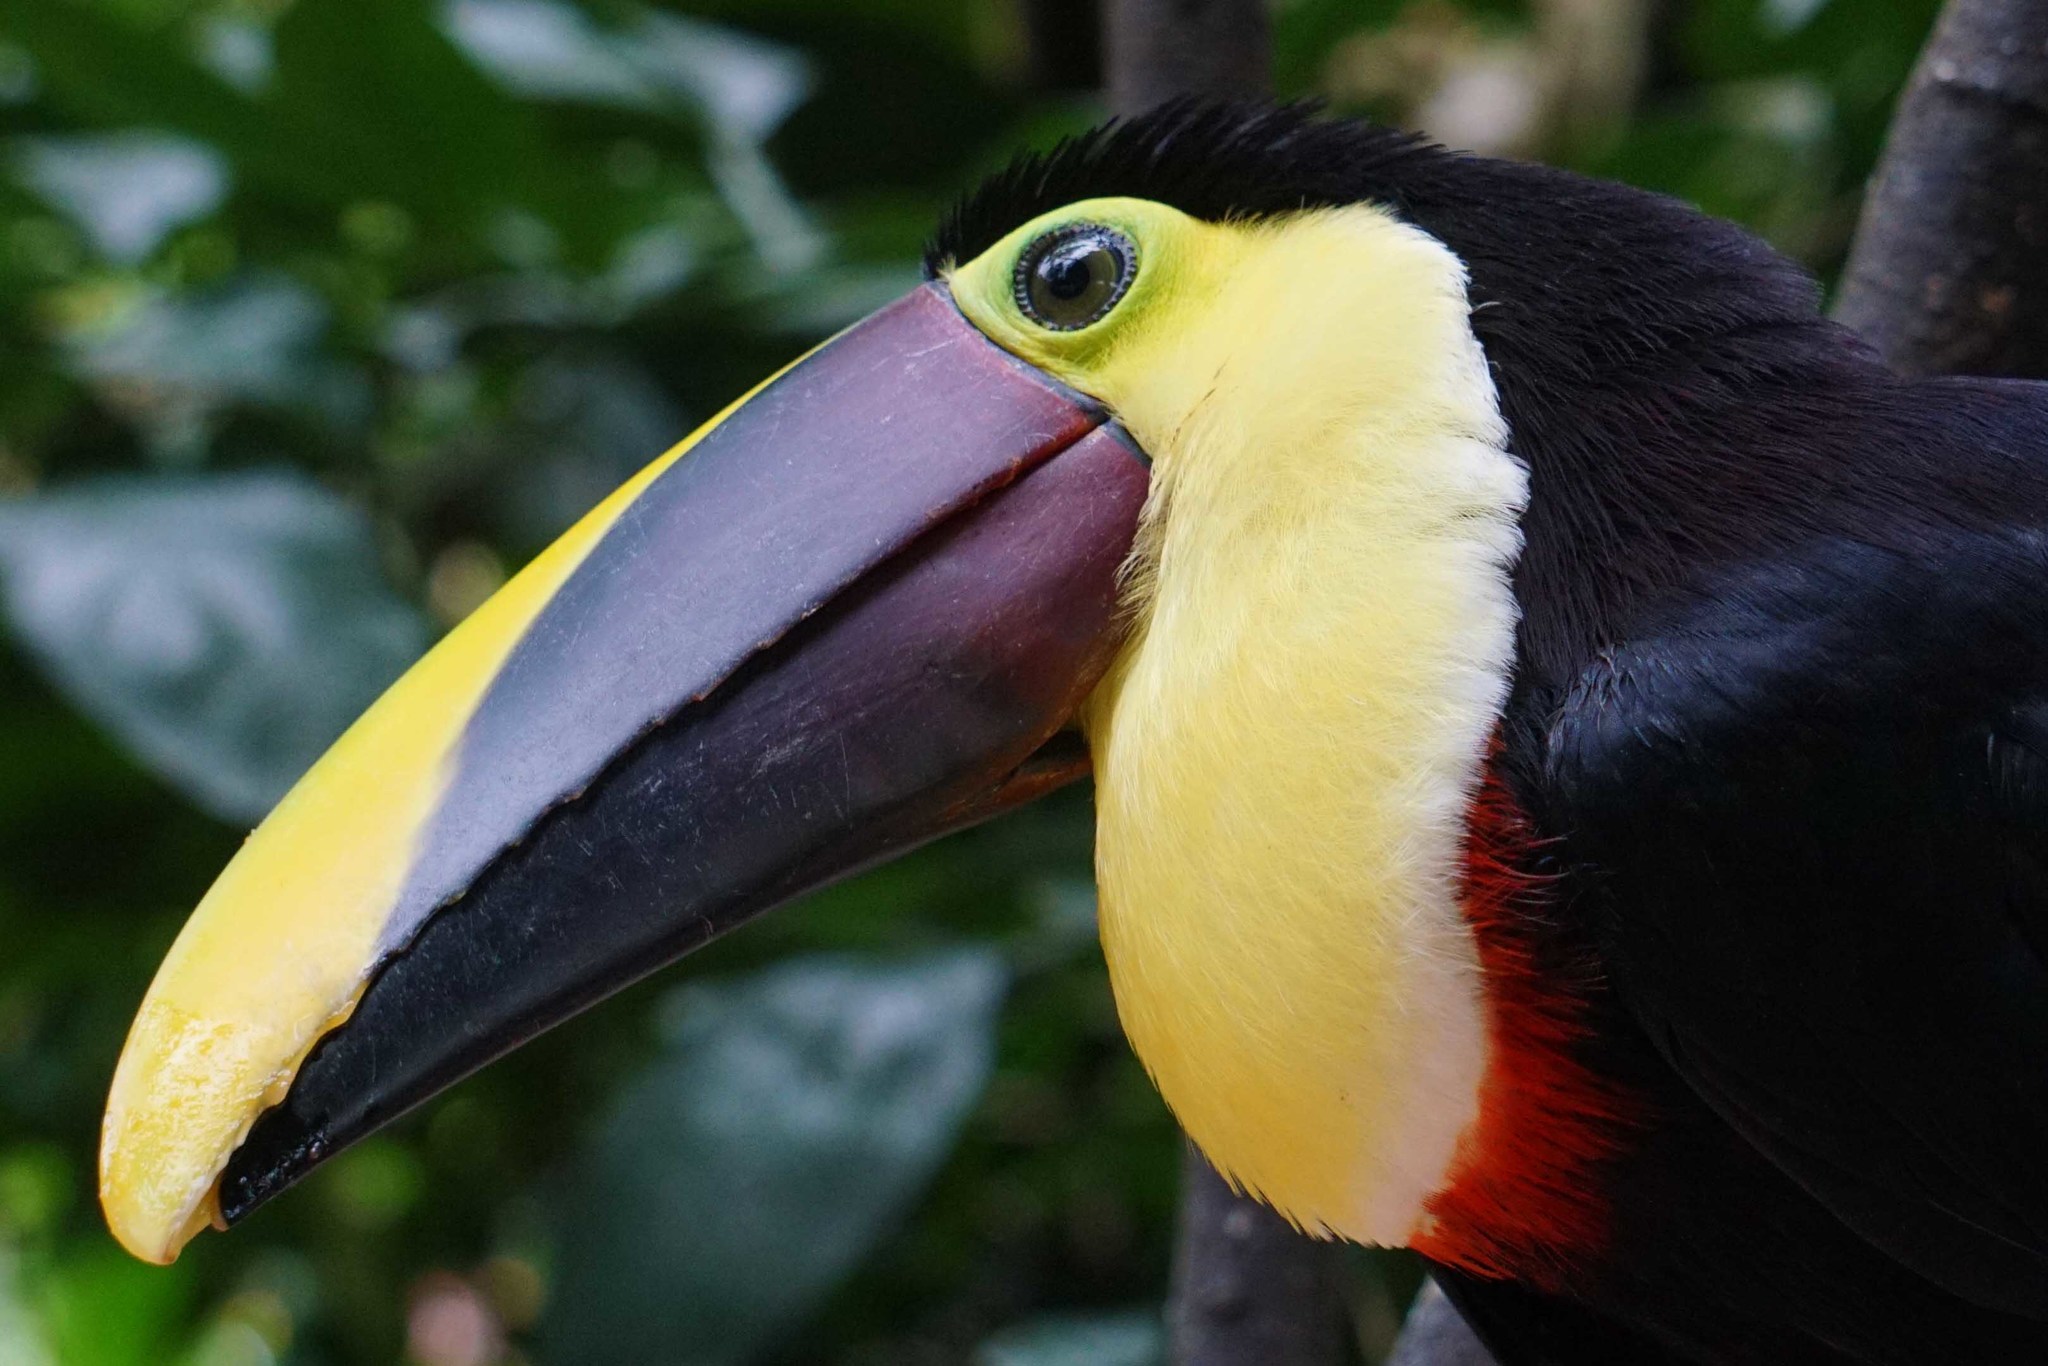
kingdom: Animalia
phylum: Chordata
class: Aves
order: Piciformes
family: Ramphastidae
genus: Ramphastos
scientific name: Ramphastos ambiguus
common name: Yellow-throated toucan
